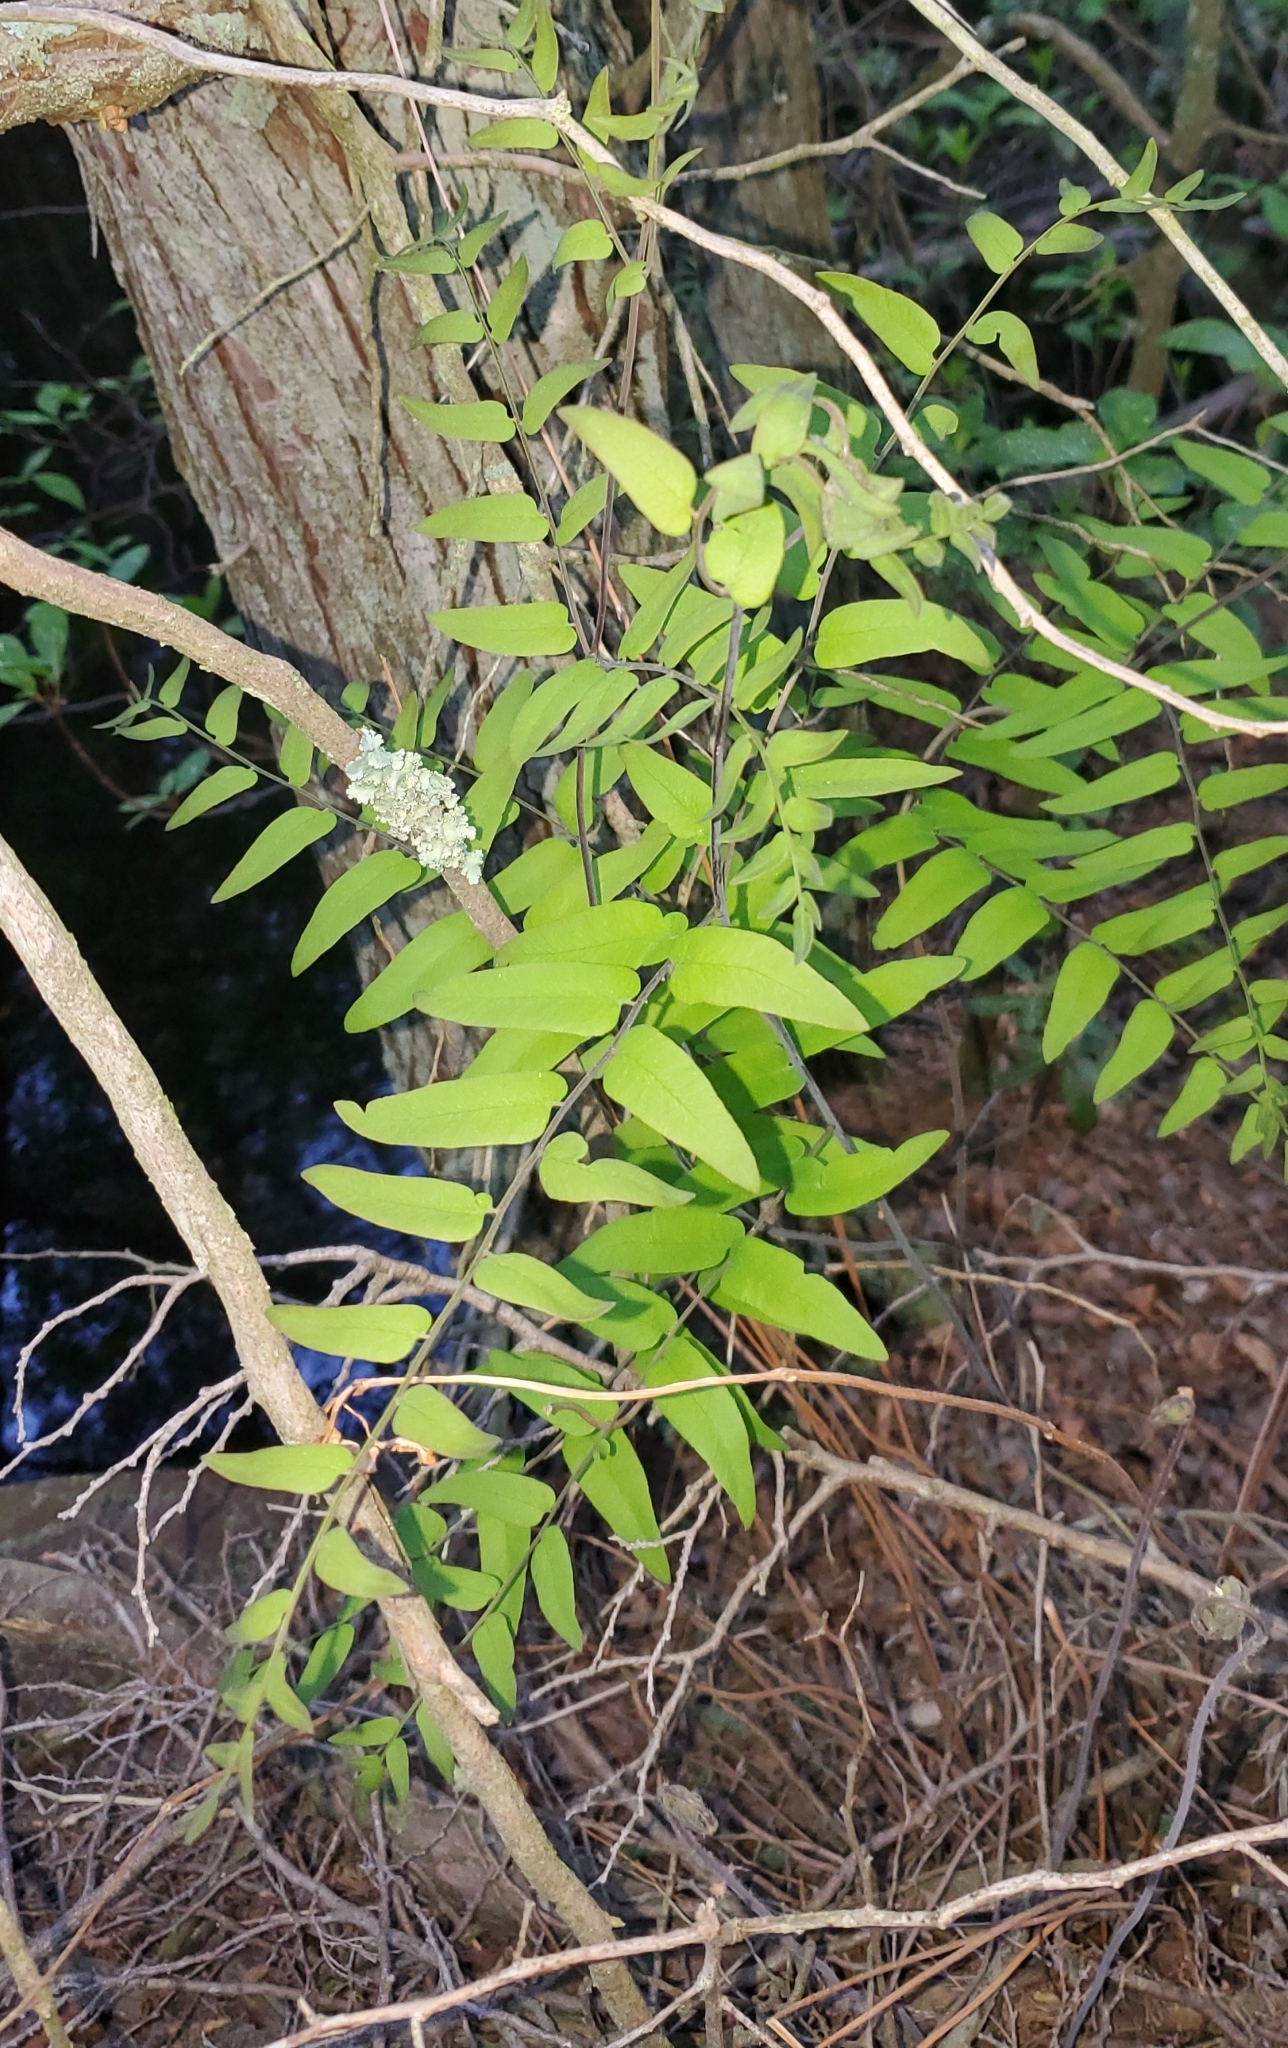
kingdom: Plantae
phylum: Tracheophyta
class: Polypodiopsida
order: Osmundales
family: Osmundaceae
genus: Osmunda
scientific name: Osmunda spectabilis
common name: American royal fern
